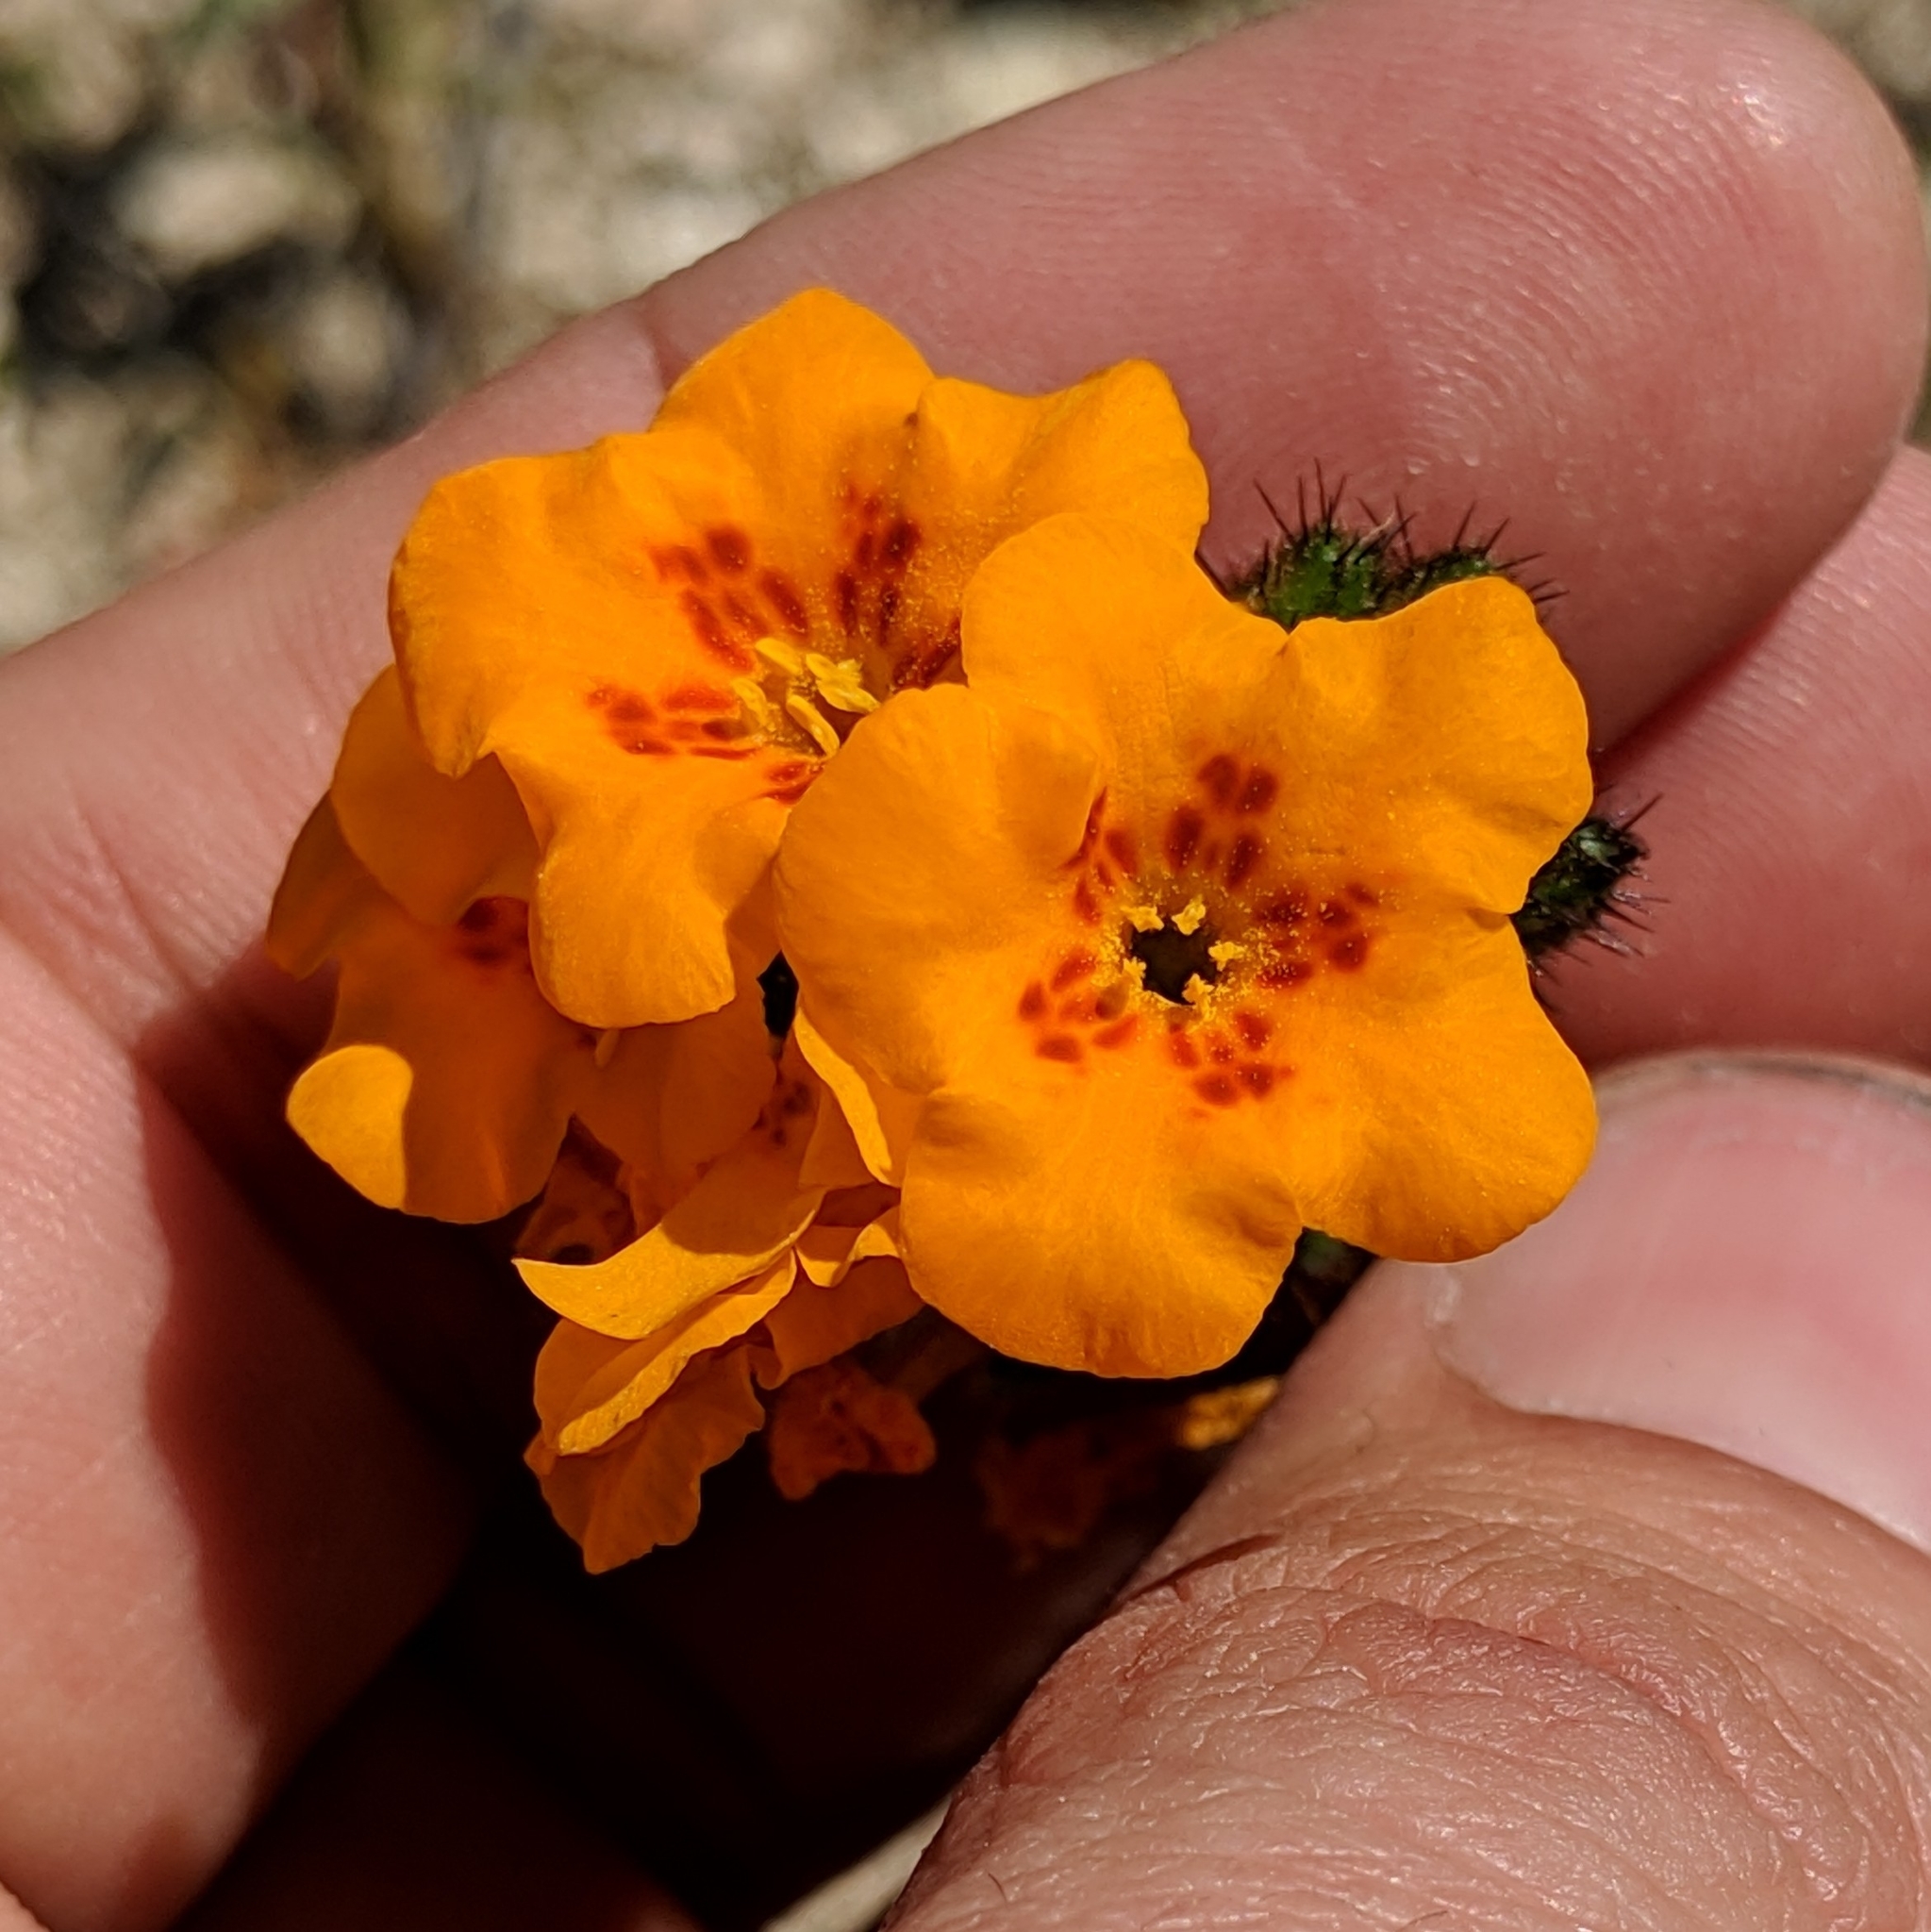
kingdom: Plantae
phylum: Tracheophyta
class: Magnoliopsida
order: Boraginales
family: Boraginaceae
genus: Amsinckia
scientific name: Amsinckia vernicosa
